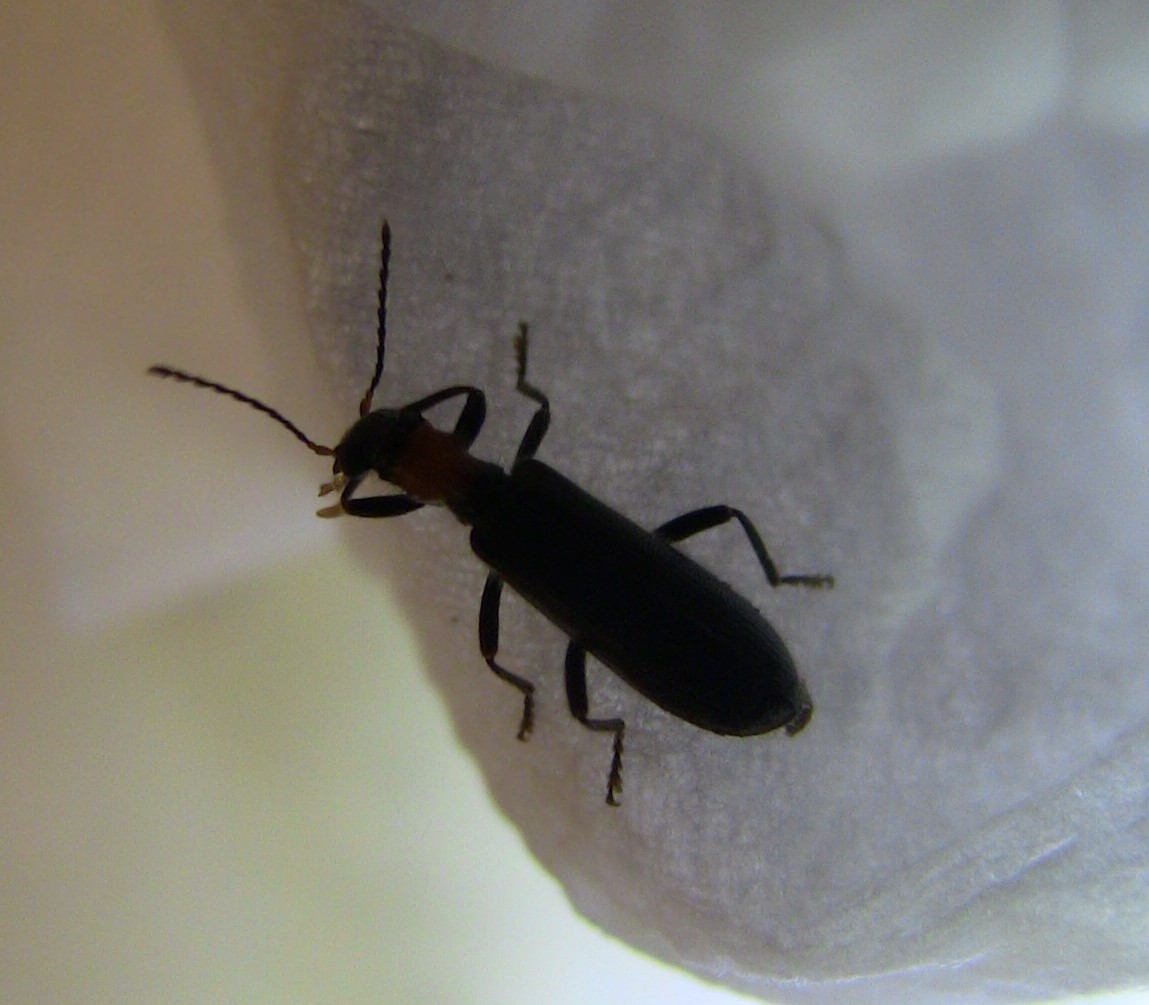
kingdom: Animalia
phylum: Arthropoda
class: Insecta
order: Coleoptera
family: Cleridae
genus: Cymatodera
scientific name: Cymatodera bicolor
